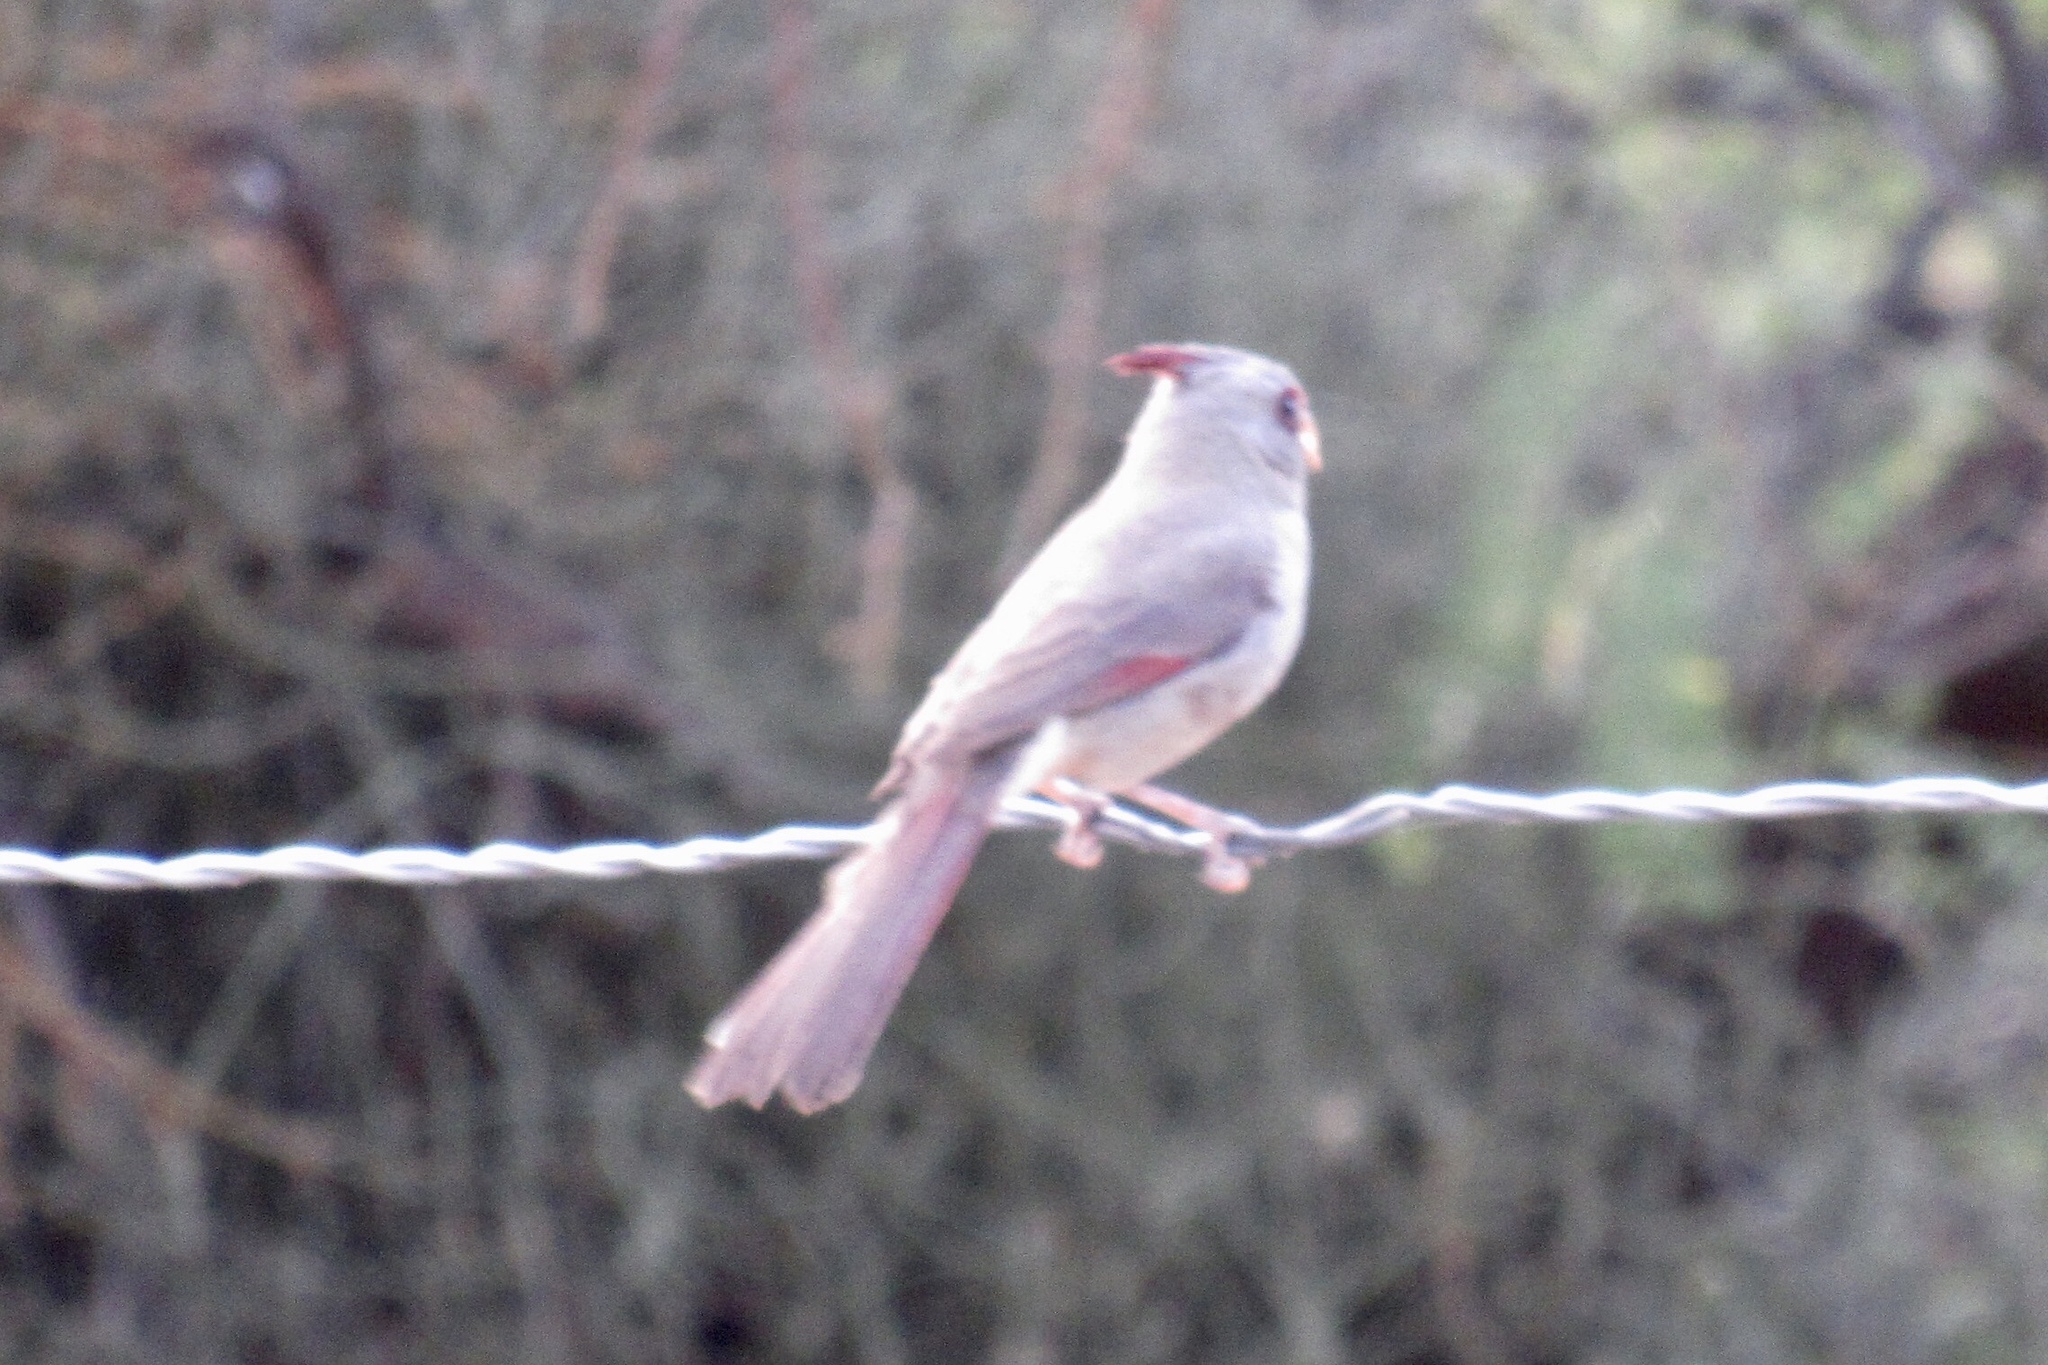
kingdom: Animalia
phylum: Chordata
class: Aves
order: Passeriformes
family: Cardinalidae
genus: Cardinalis
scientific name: Cardinalis sinuatus
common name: Pyrrhuloxia
